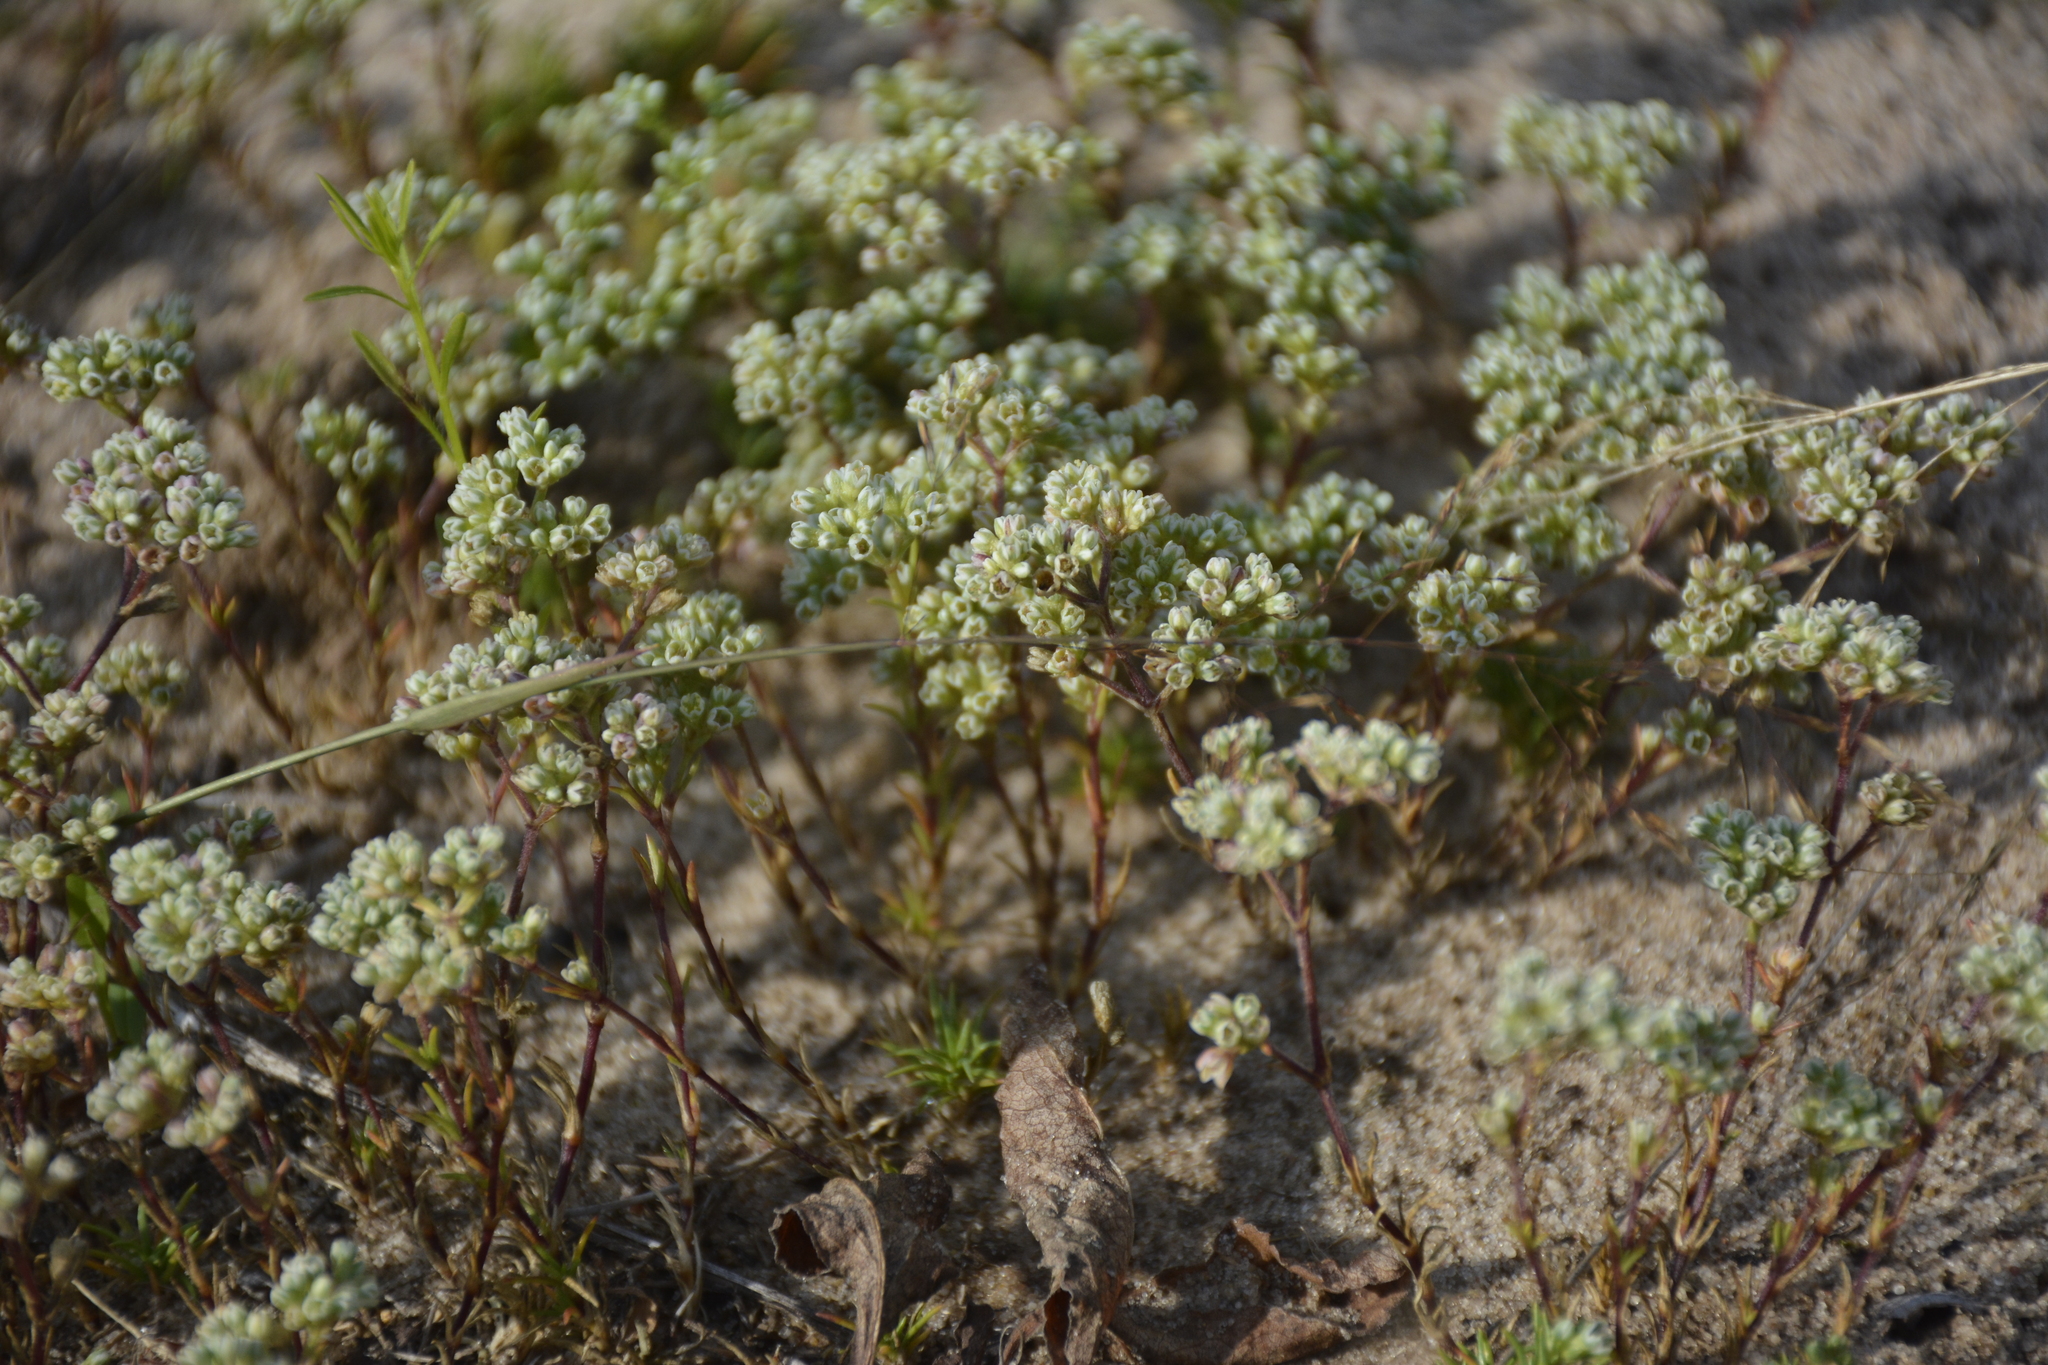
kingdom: Plantae
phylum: Tracheophyta
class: Magnoliopsida
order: Caryophyllales
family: Caryophyllaceae
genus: Scleranthus
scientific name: Scleranthus perennis
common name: Perennial knawel
